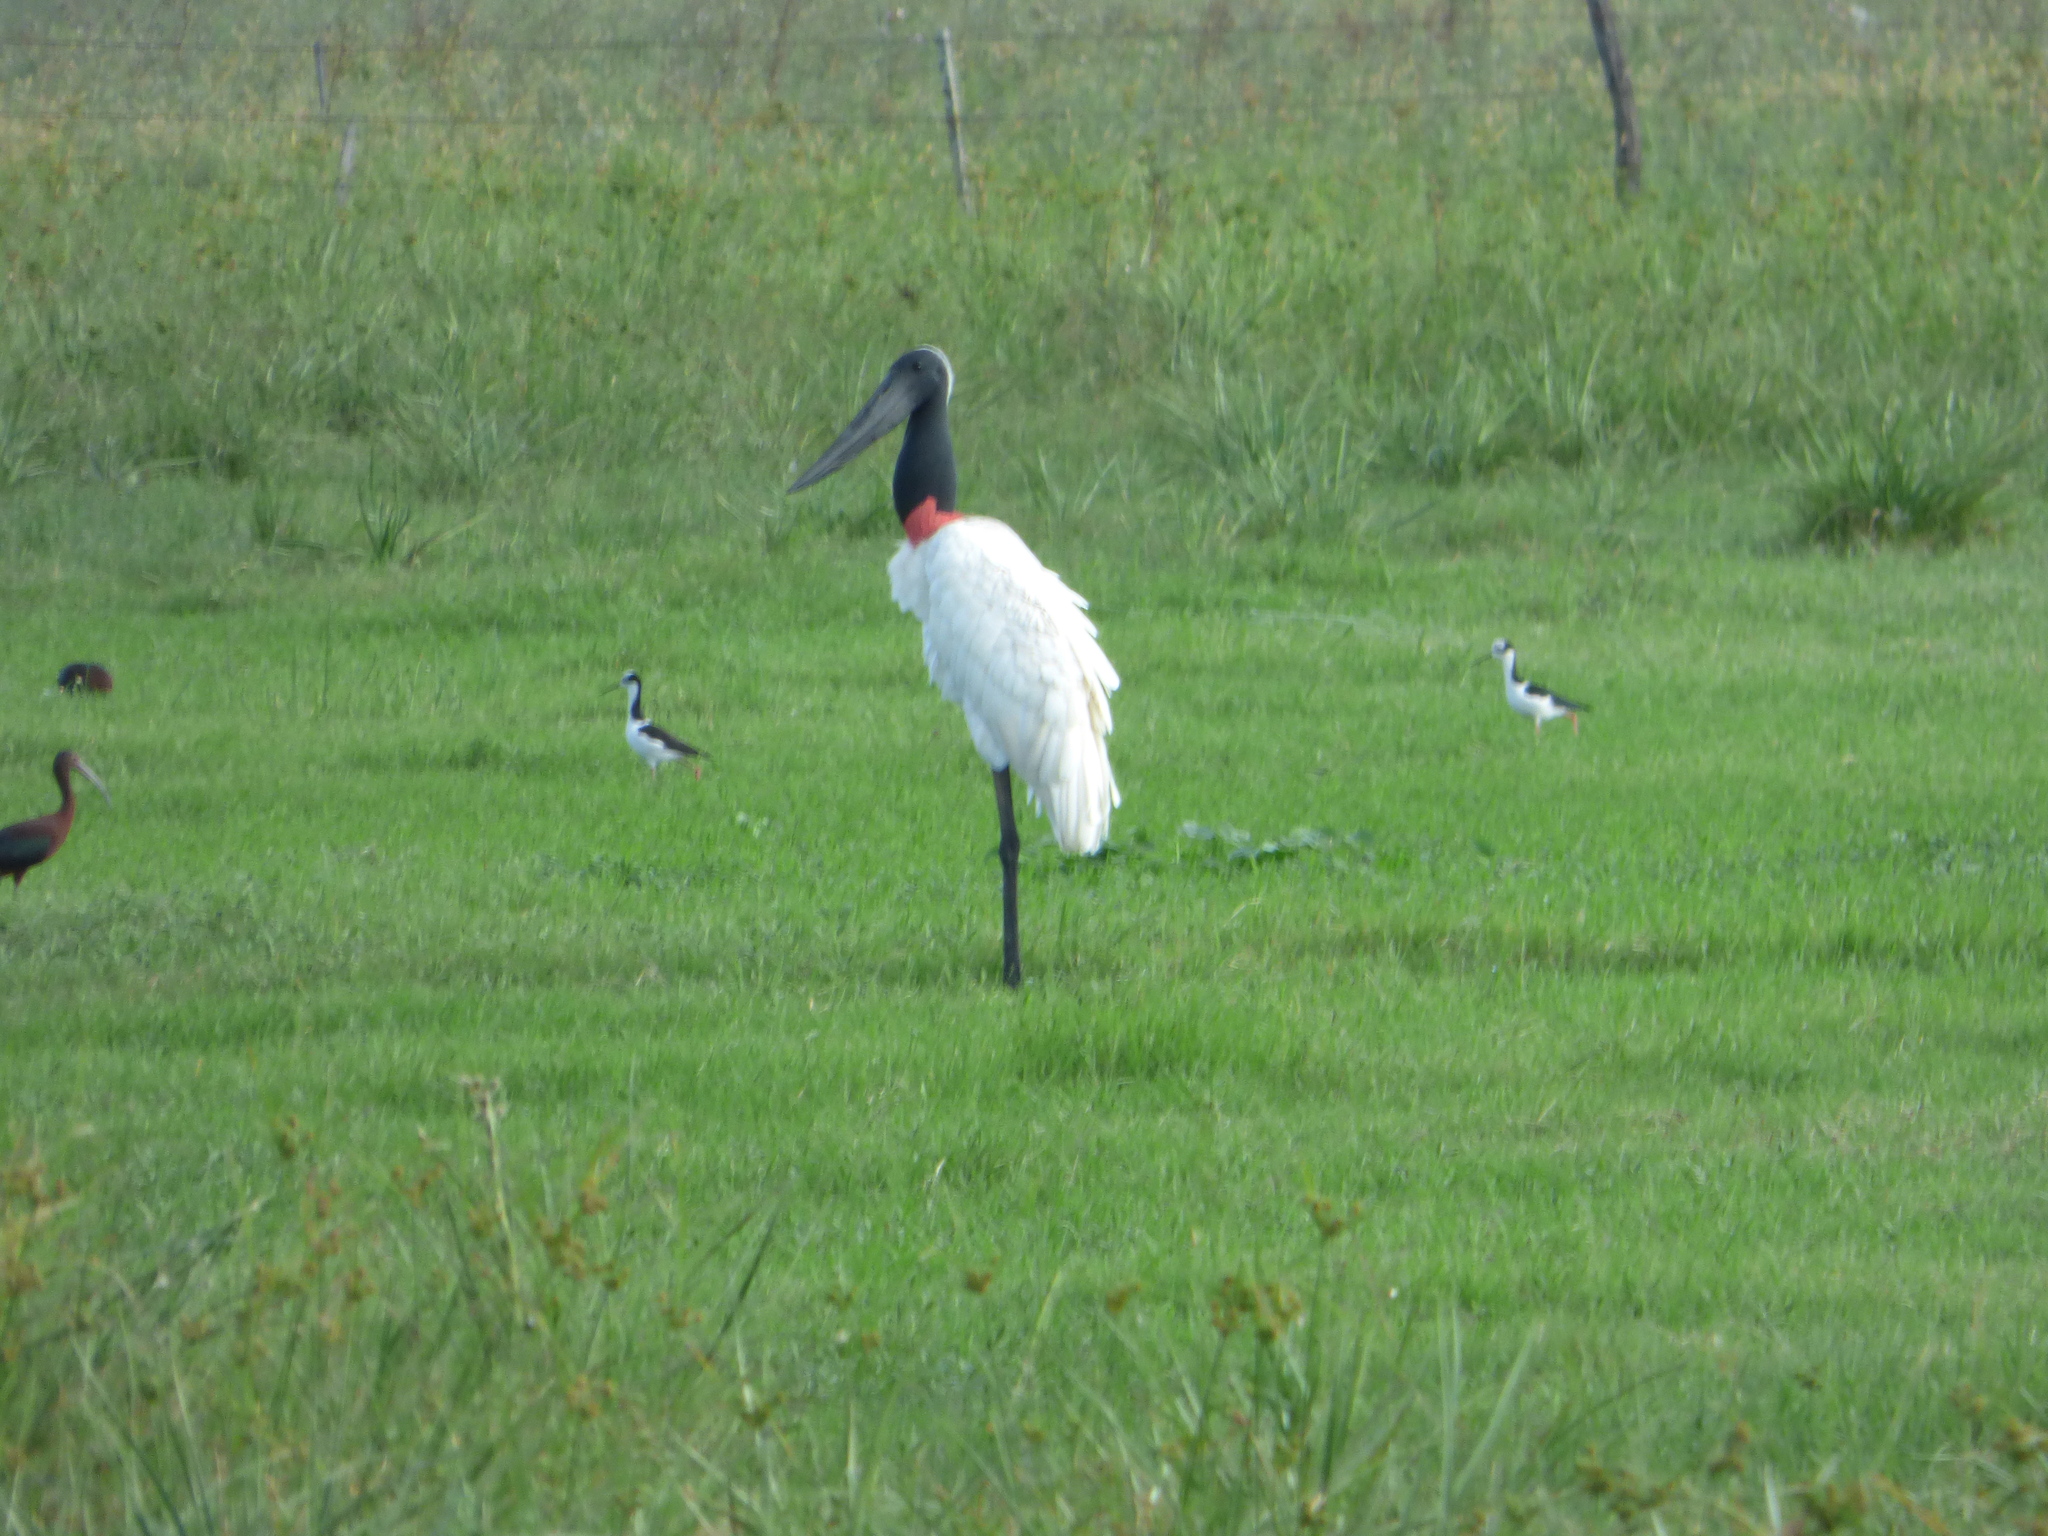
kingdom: Animalia
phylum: Chordata
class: Aves
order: Ciconiiformes
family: Ciconiidae
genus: Jabiru
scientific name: Jabiru mycteria
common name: Jabiru
